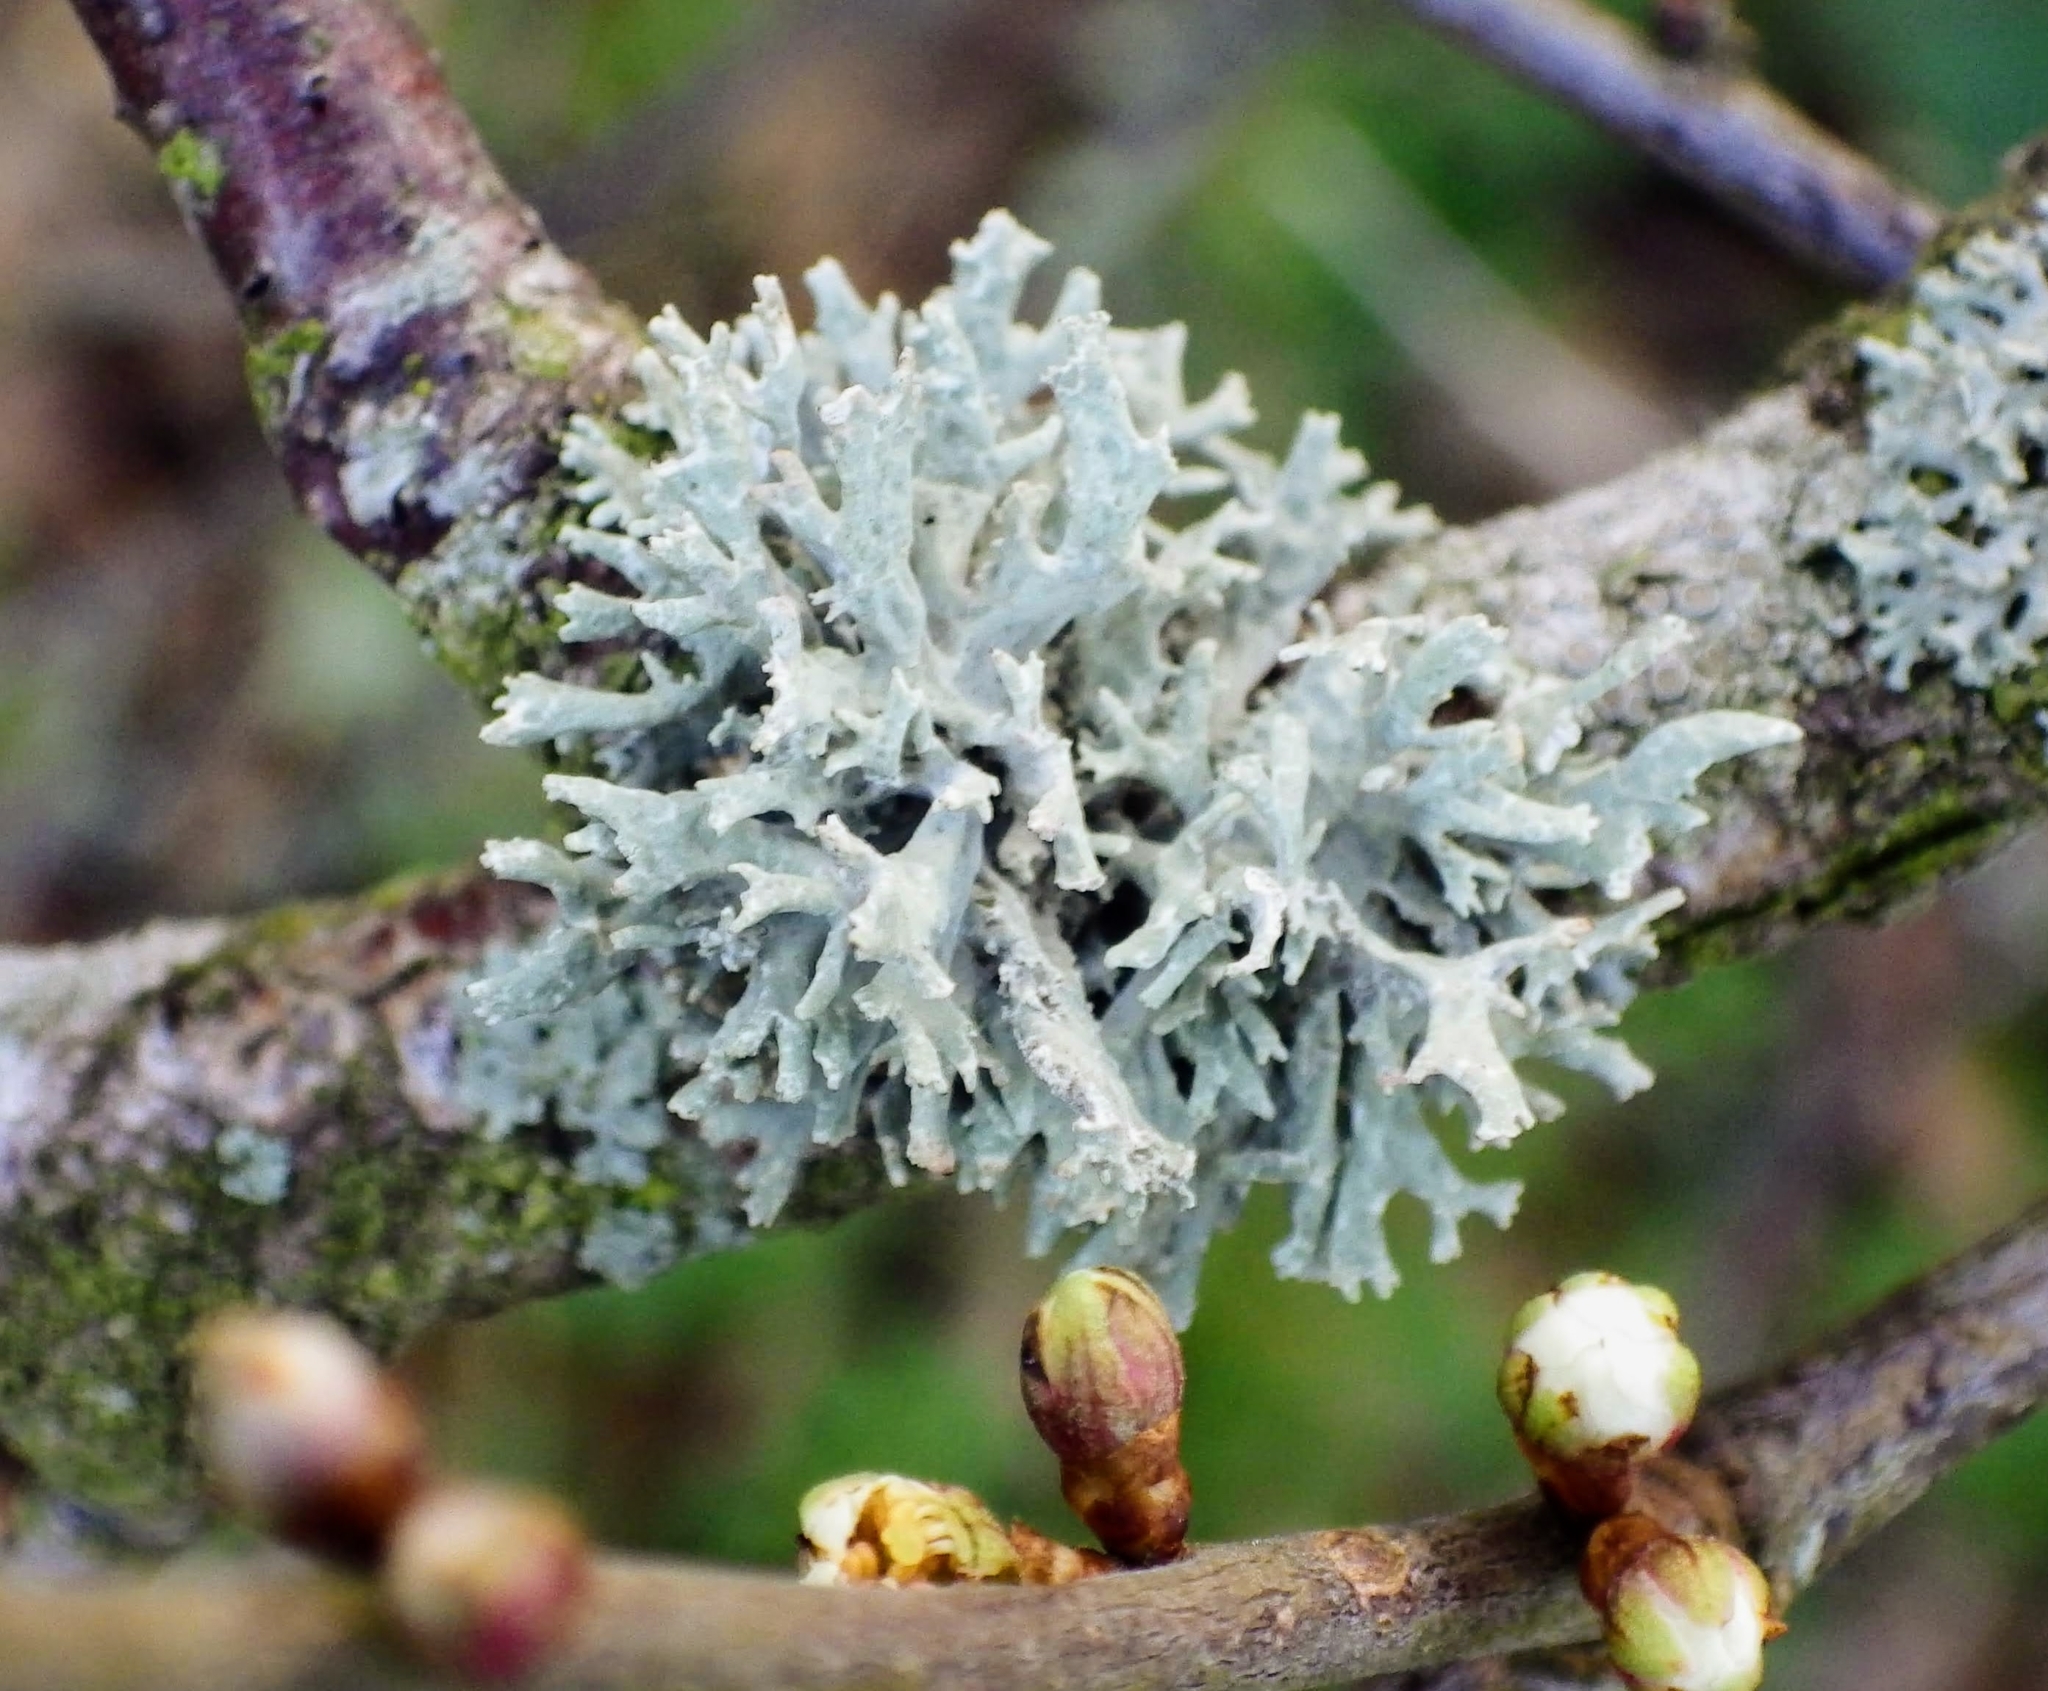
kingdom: Fungi
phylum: Ascomycota
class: Lecanoromycetes
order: Lecanorales
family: Parmeliaceae
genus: Evernia
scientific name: Evernia prunastri
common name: Oak moss
